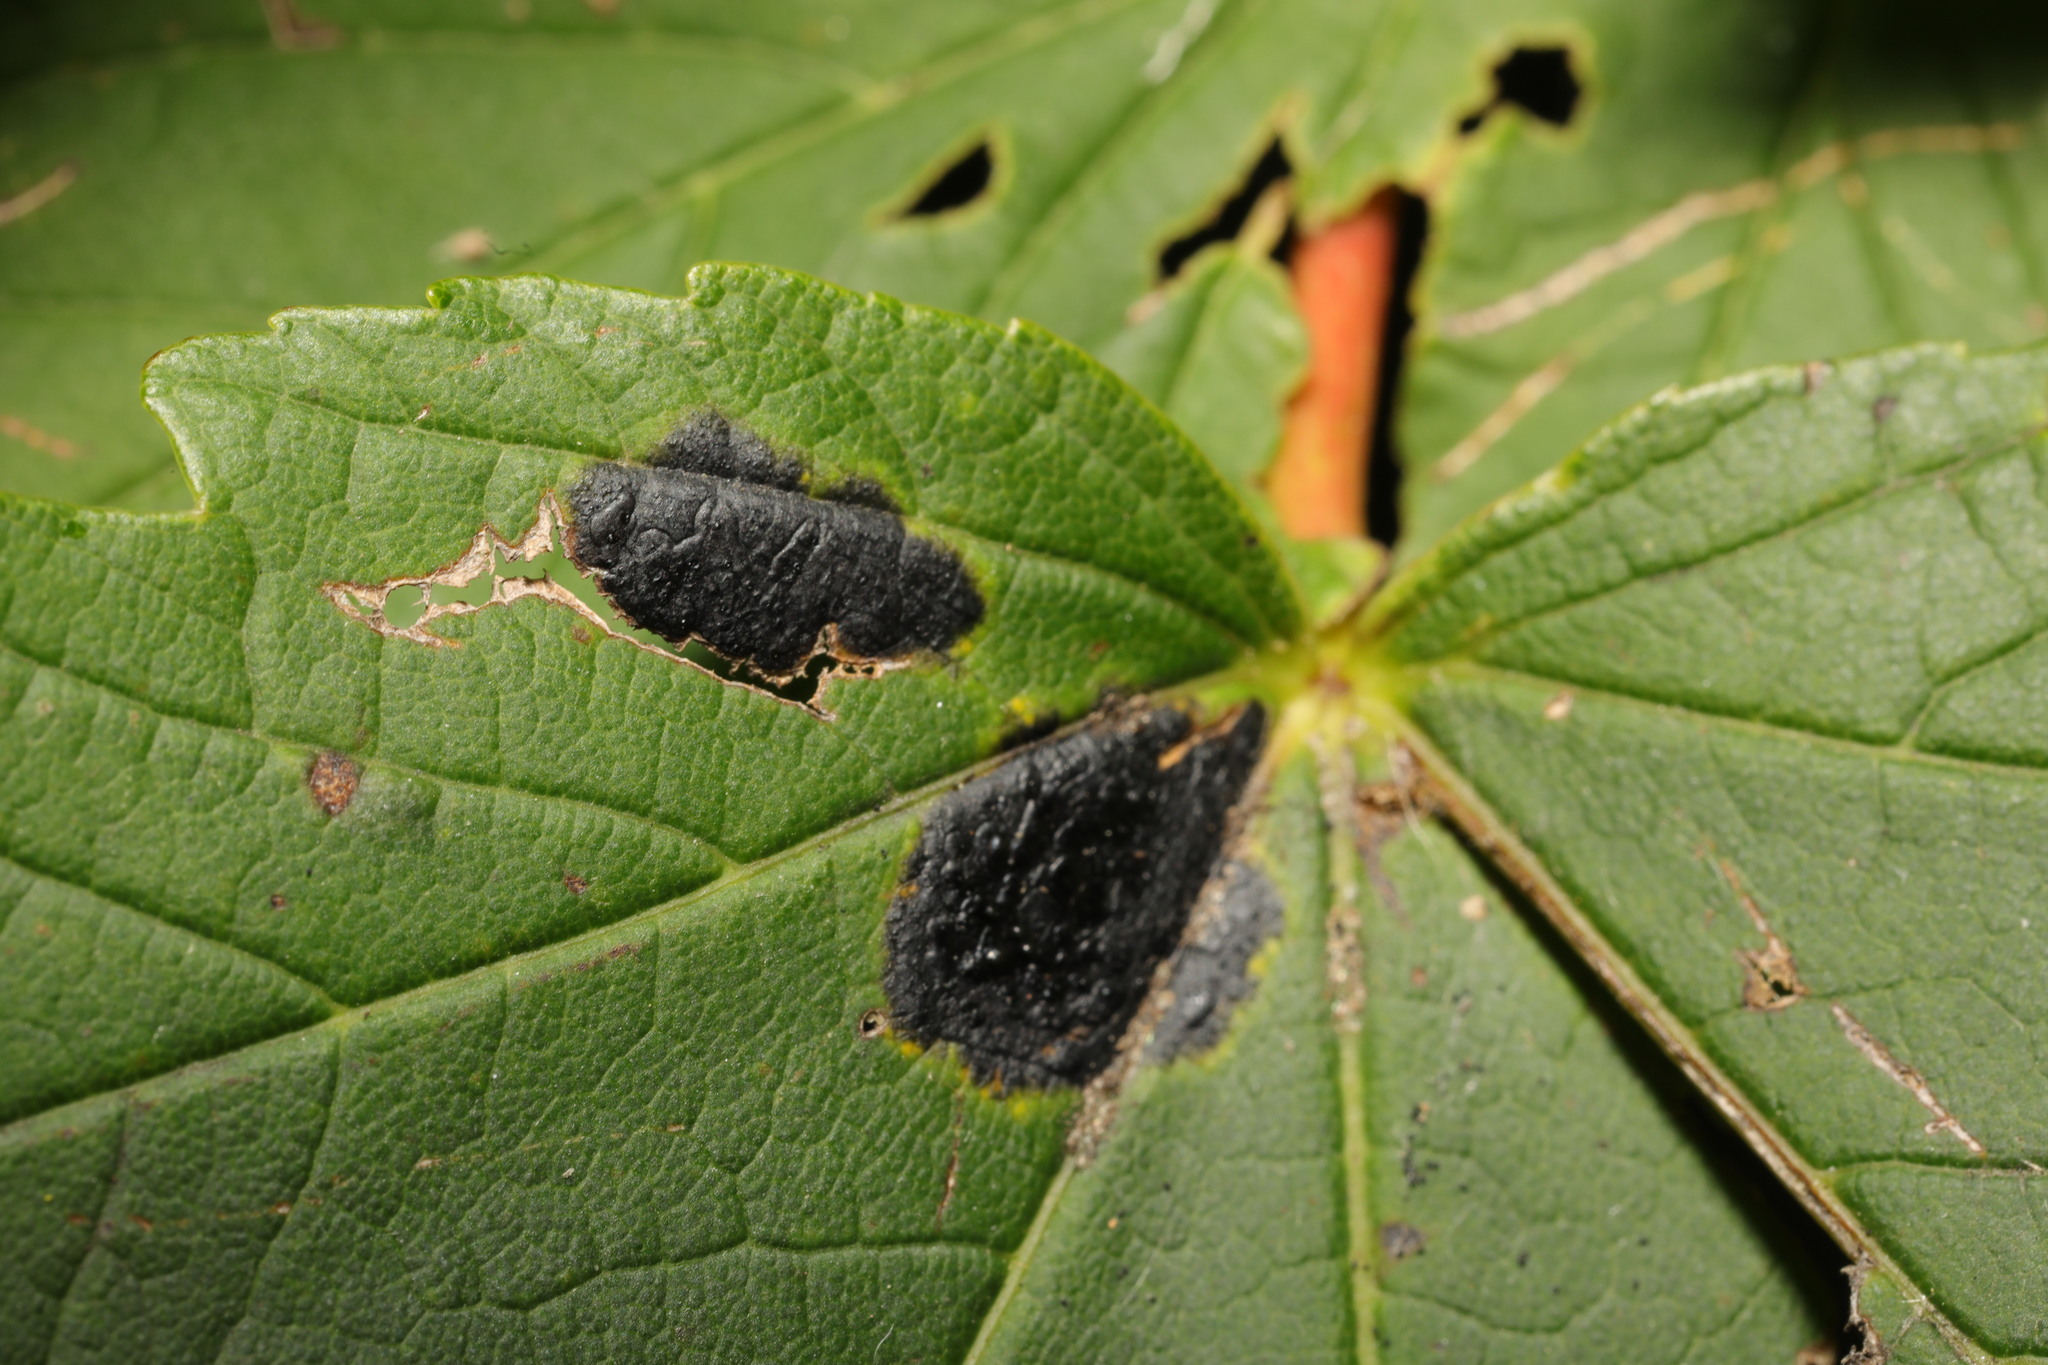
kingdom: Fungi
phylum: Ascomycota
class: Leotiomycetes
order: Rhytismatales
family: Rhytismataceae
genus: Rhytisma
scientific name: Rhytisma acerinum
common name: European tar spot
